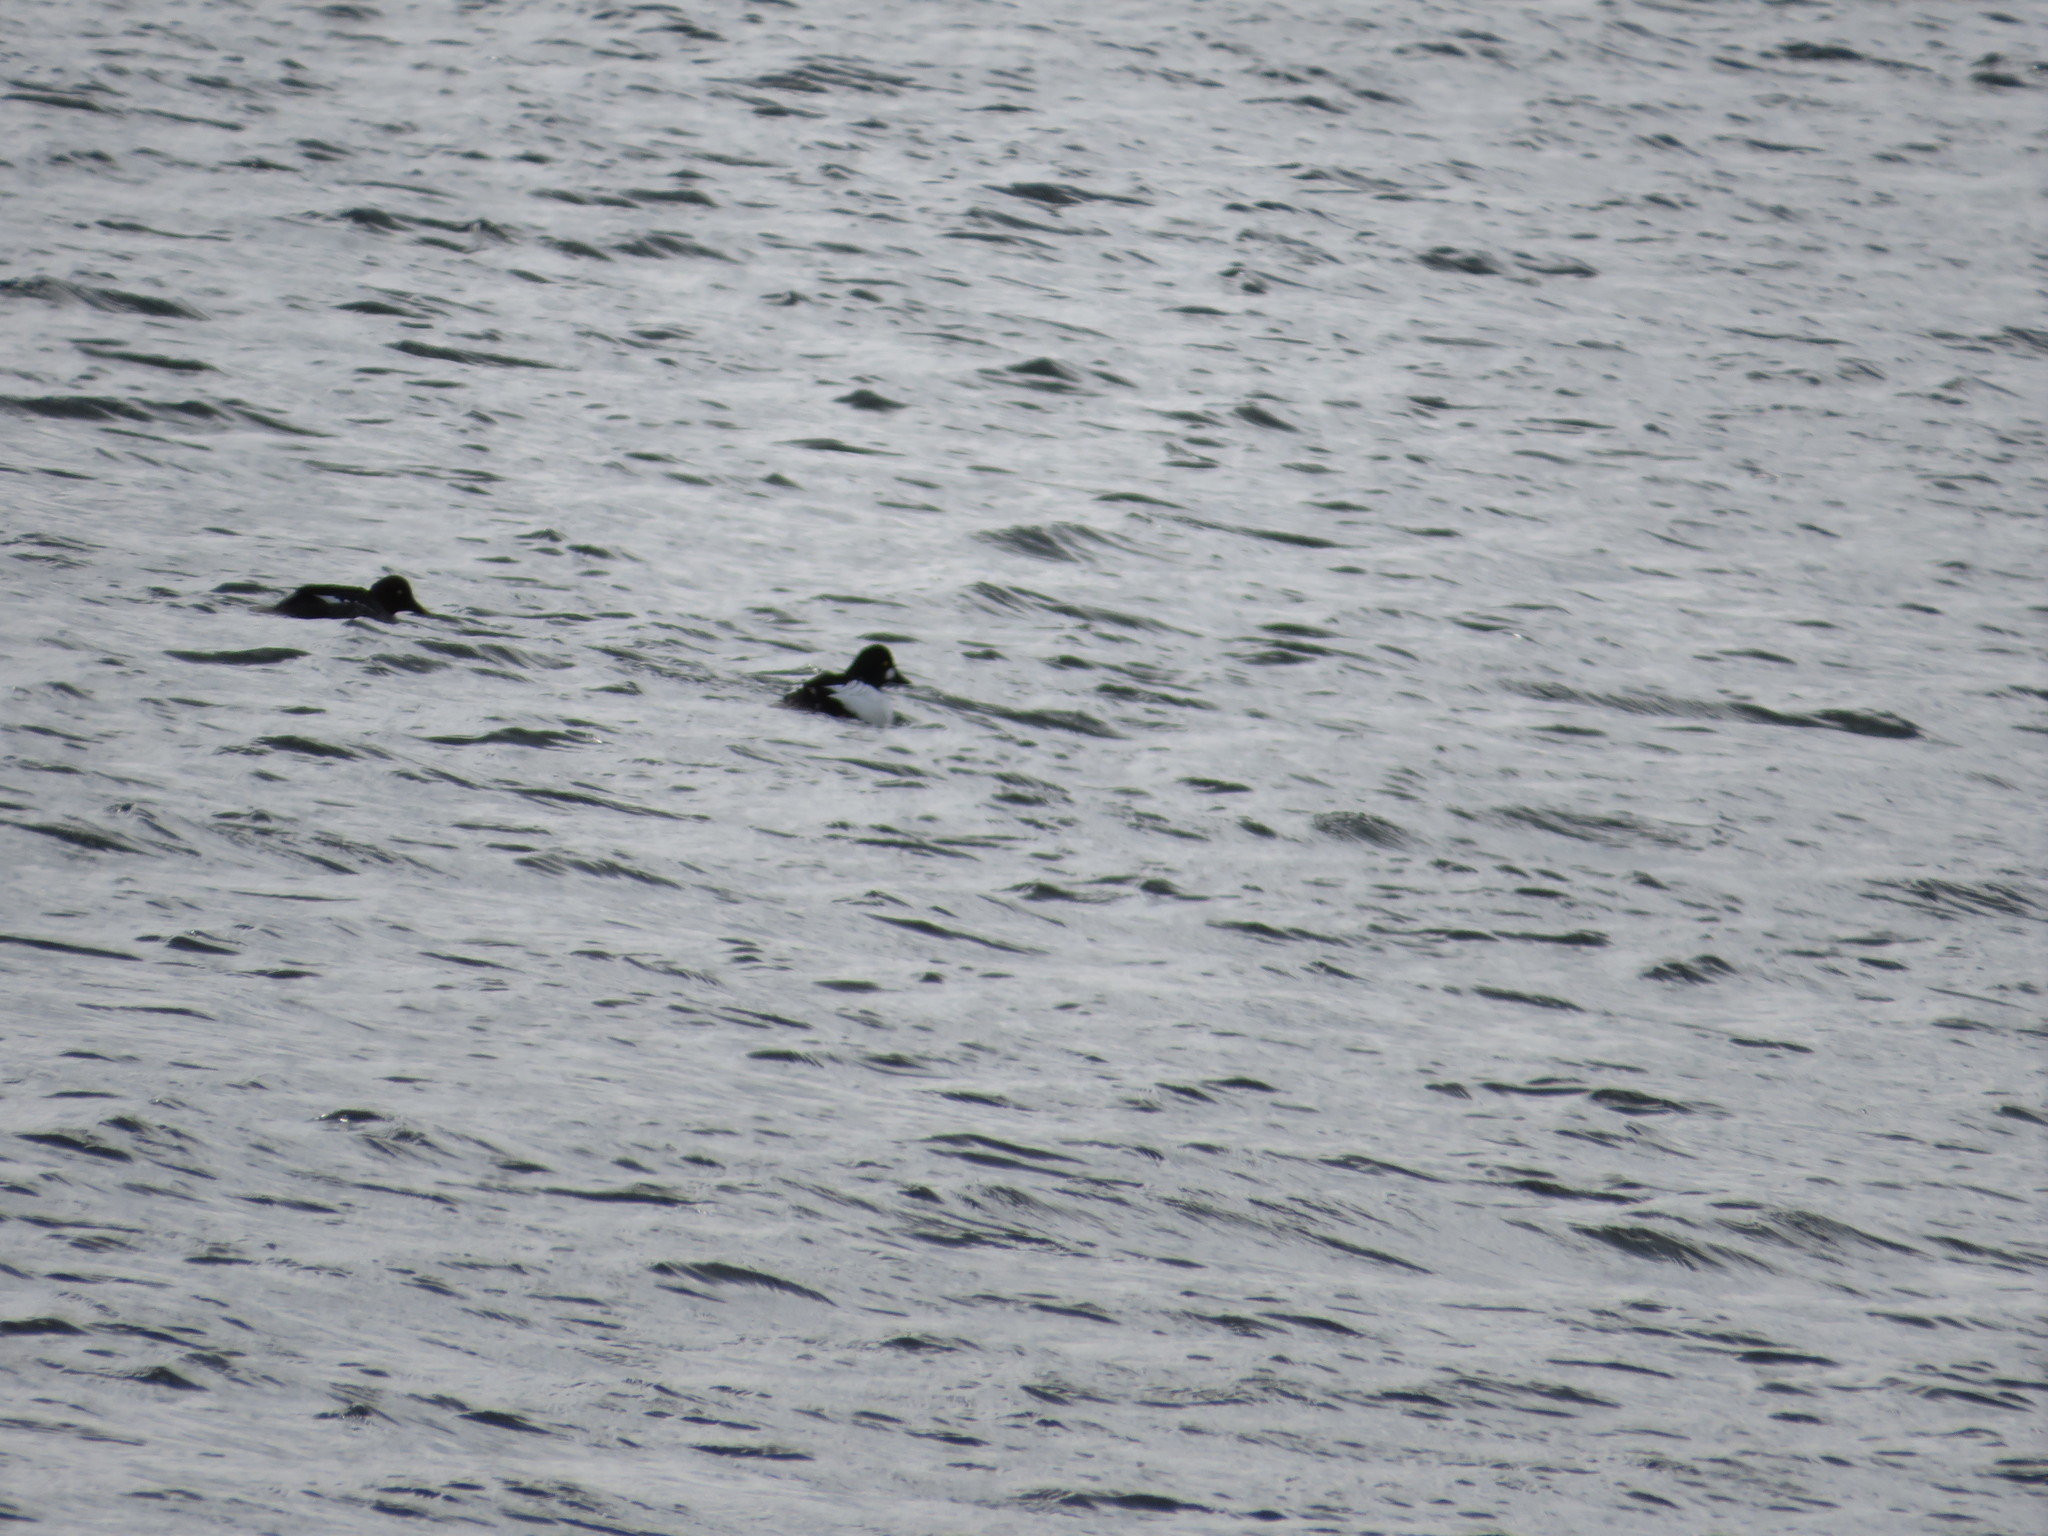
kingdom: Animalia
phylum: Chordata
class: Aves
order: Anseriformes
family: Anatidae
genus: Bucephala
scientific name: Bucephala clangula
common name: Common goldeneye
